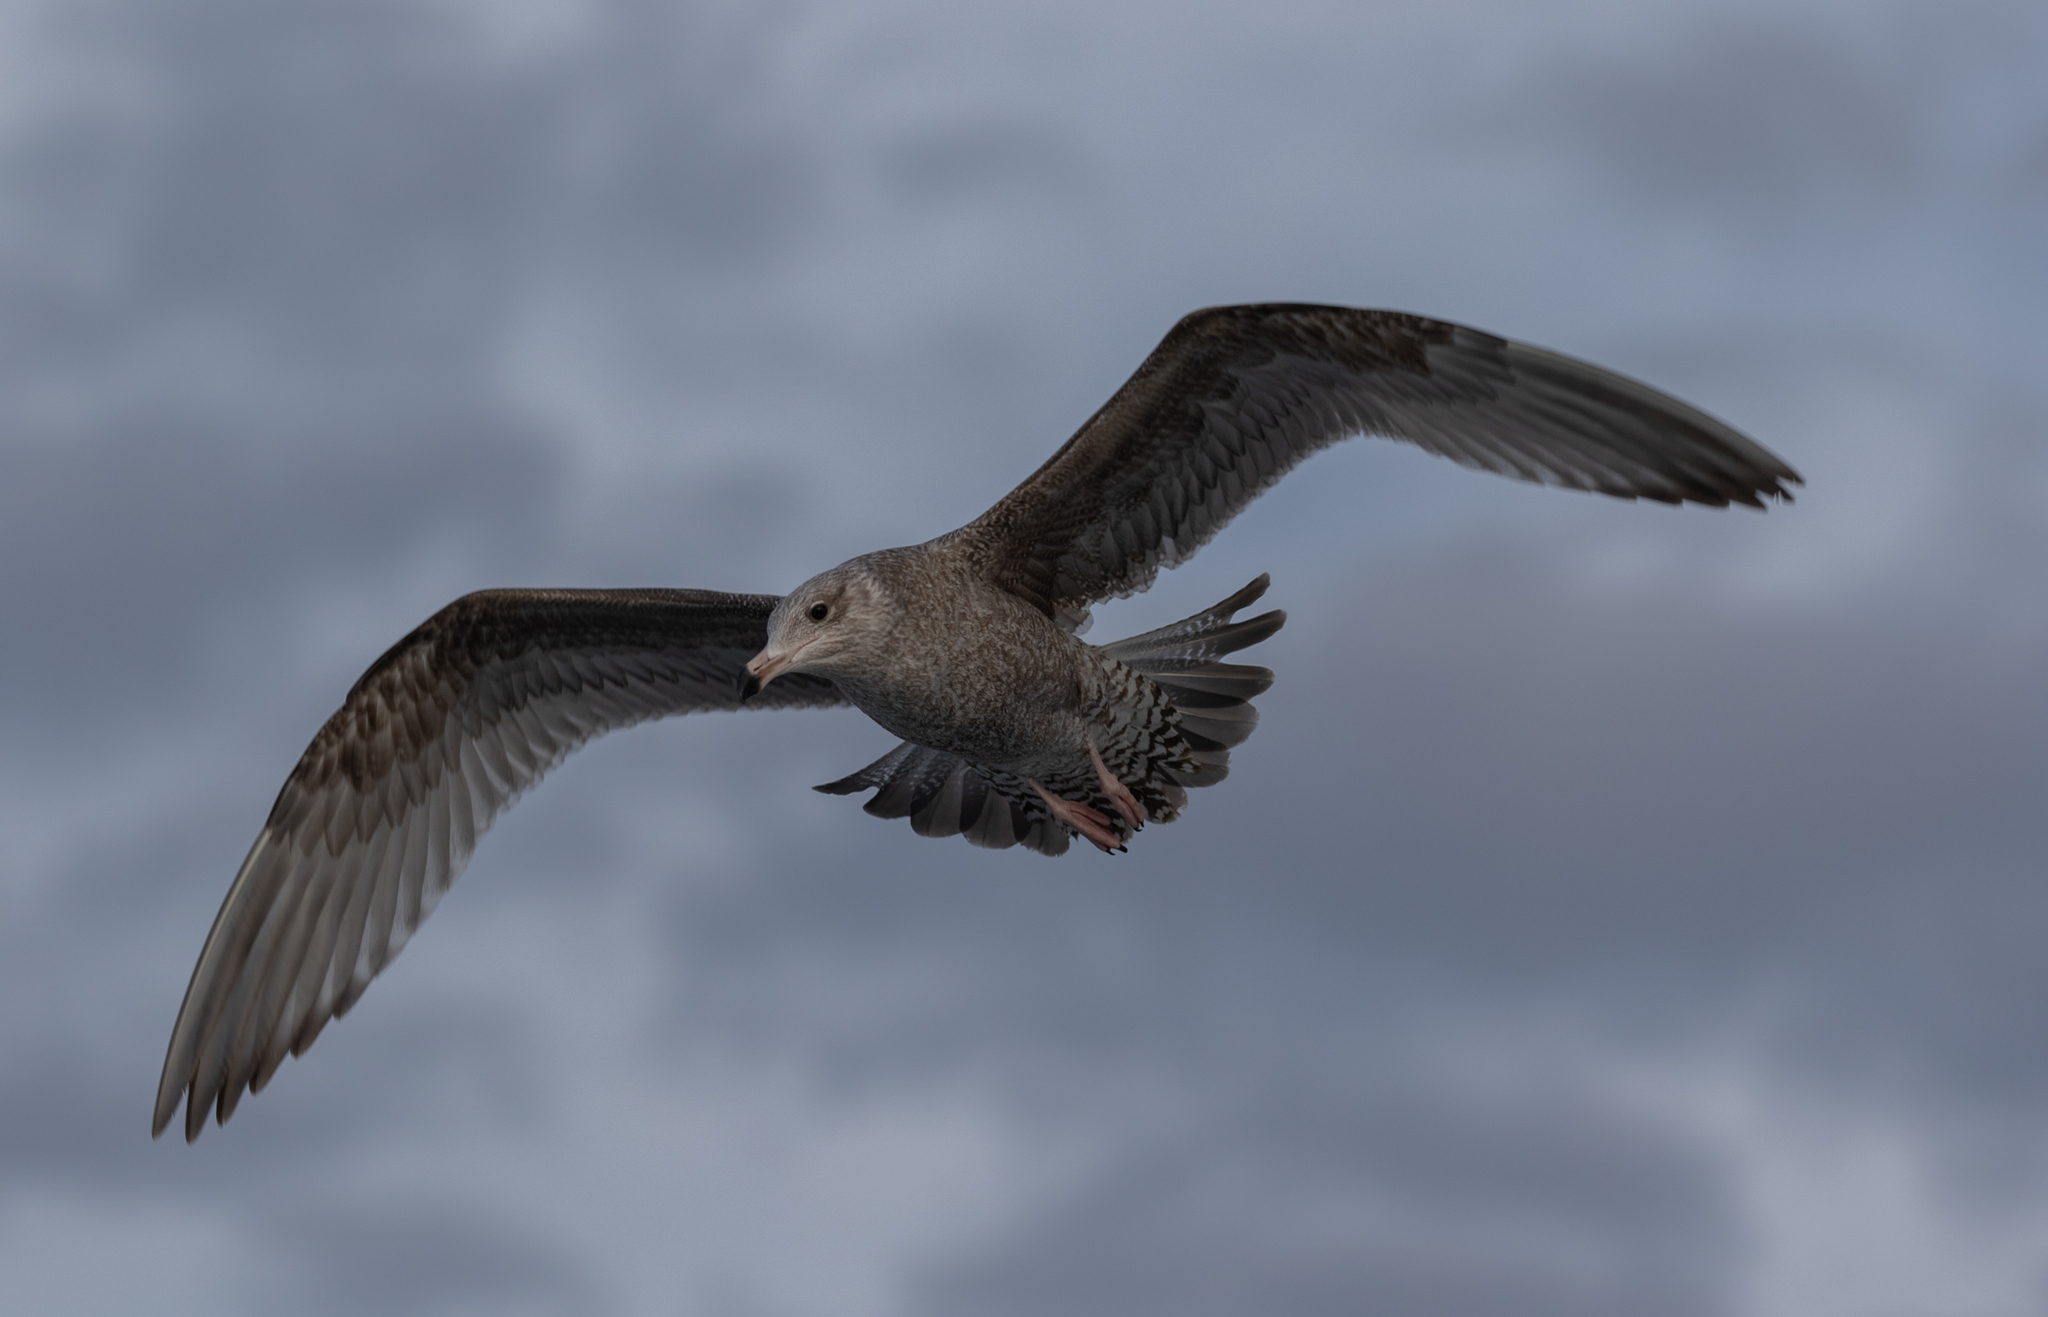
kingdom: Animalia
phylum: Chordata
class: Aves
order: Charadriiformes
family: Laridae
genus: Larus
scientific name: Larus argentatus
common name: Herring gull
